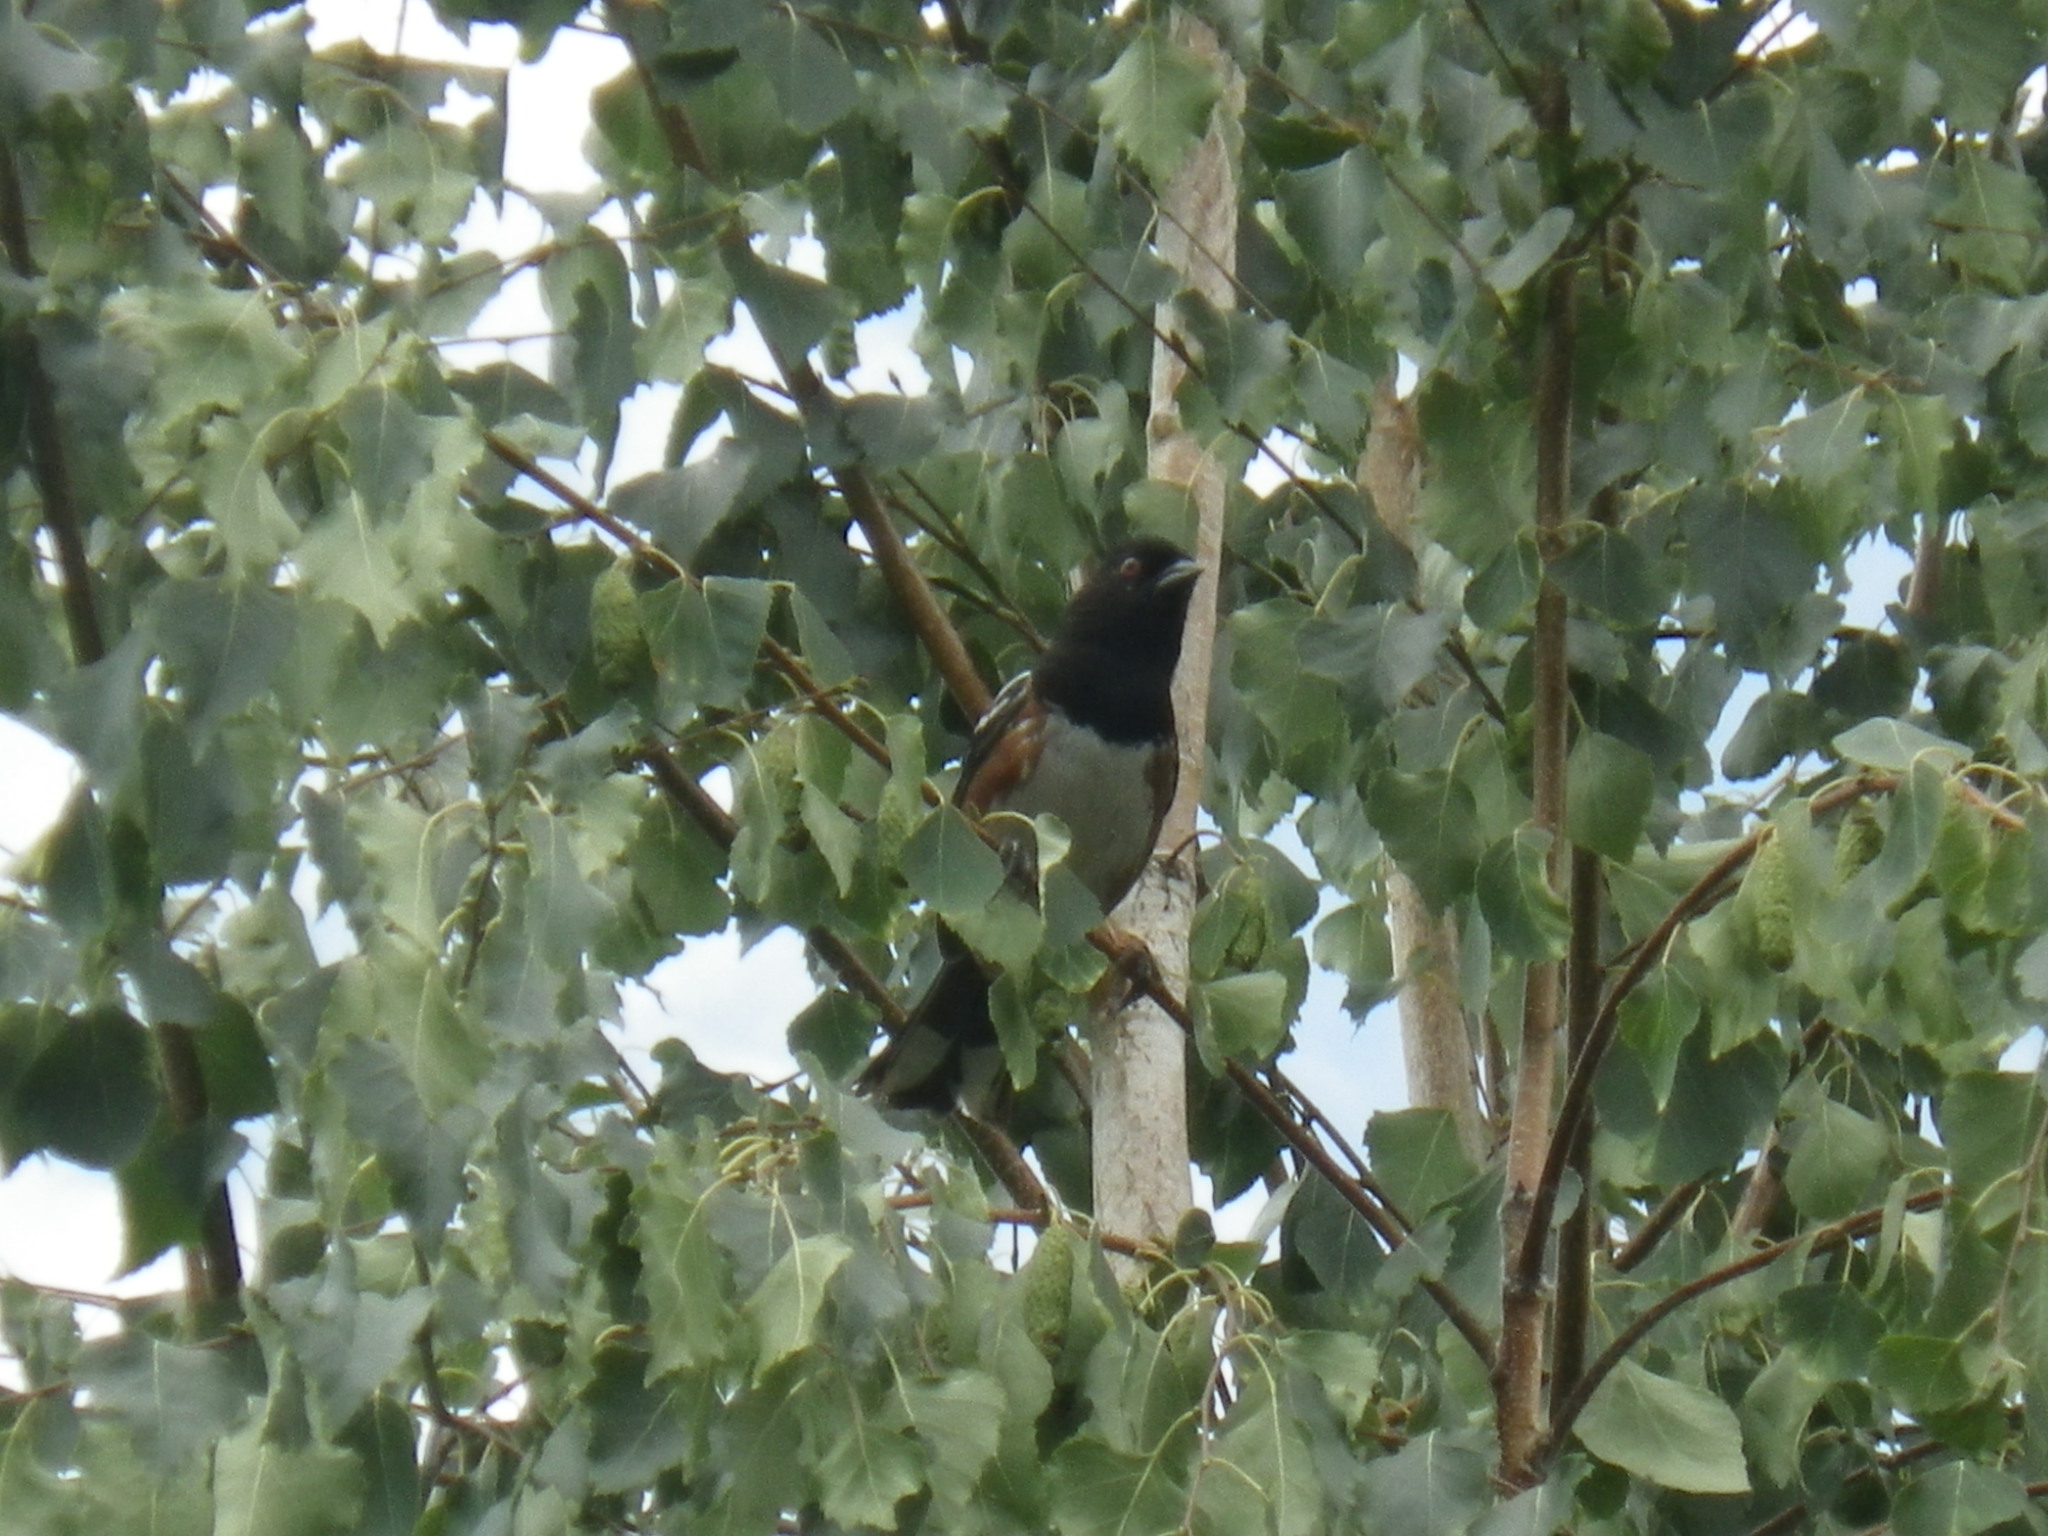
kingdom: Animalia
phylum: Chordata
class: Aves
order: Passeriformes
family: Passerellidae
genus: Pipilo
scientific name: Pipilo maculatus
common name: Spotted towhee
